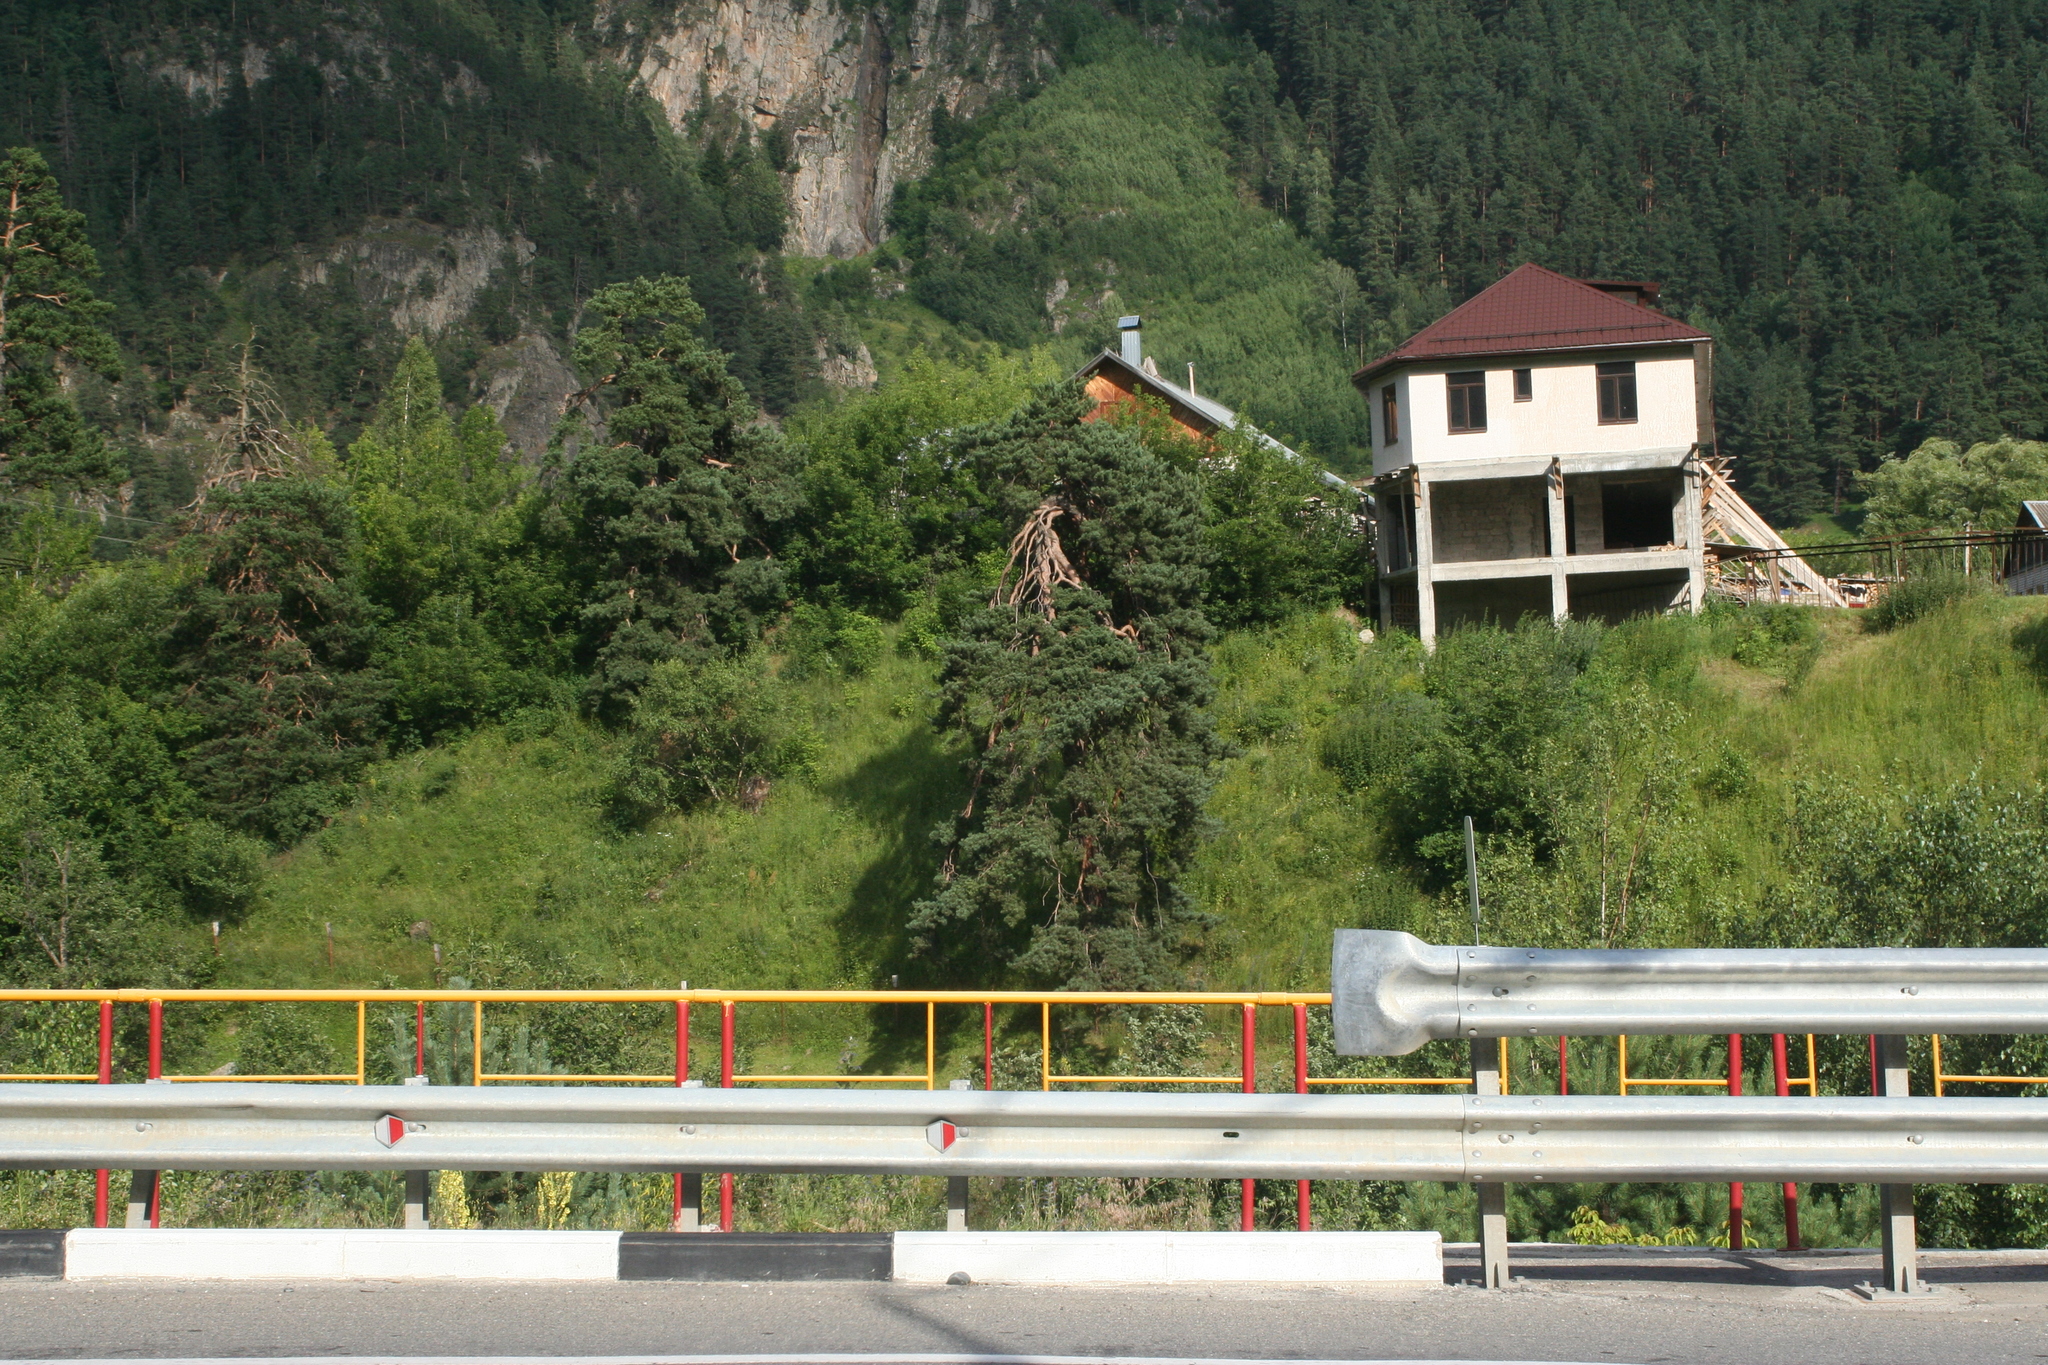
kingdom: Plantae
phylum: Tracheophyta
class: Pinopsida
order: Pinales
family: Pinaceae
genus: Pinus
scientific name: Pinus sylvestris
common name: Scots pine
